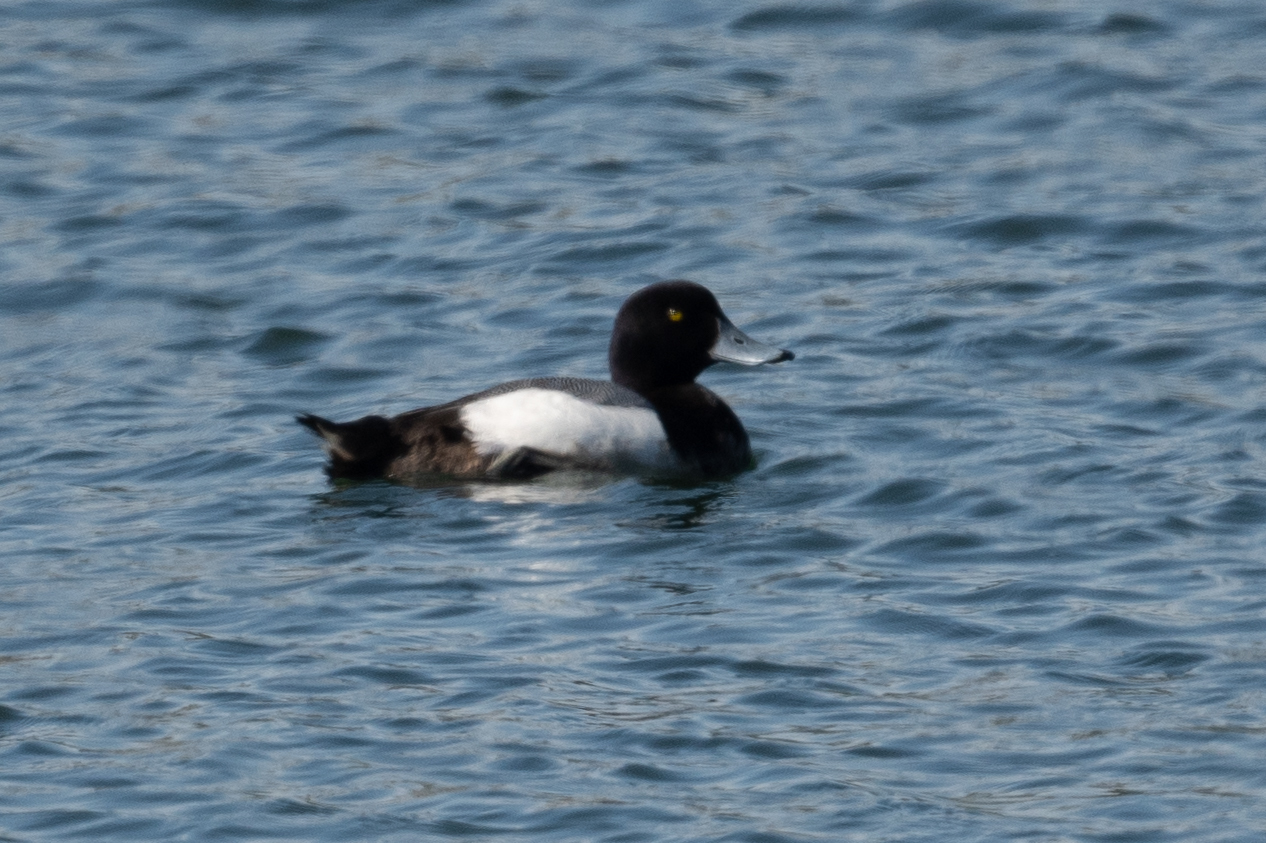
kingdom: Animalia
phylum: Chordata
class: Aves
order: Anseriformes
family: Anatidae
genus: Aythya
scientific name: Aythya marila
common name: Greater scaup
